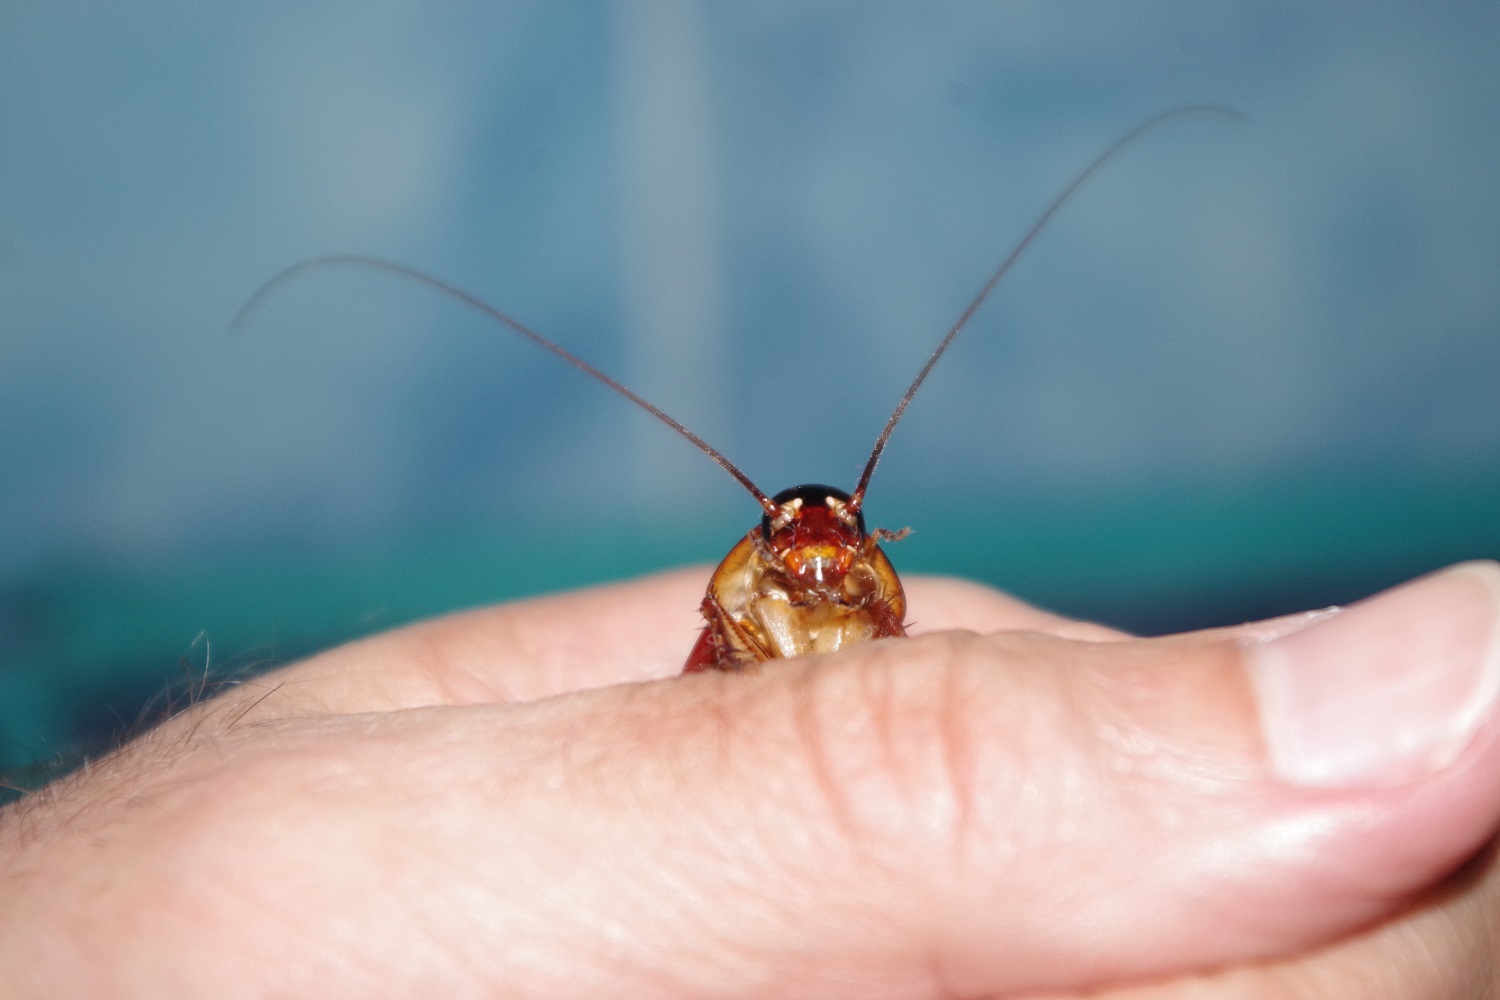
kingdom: Animalia
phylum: Arthropoda
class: Insecta
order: Blattodea
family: Blattidae
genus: Periplaneta
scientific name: Periplaneta americana
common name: American cockroach
